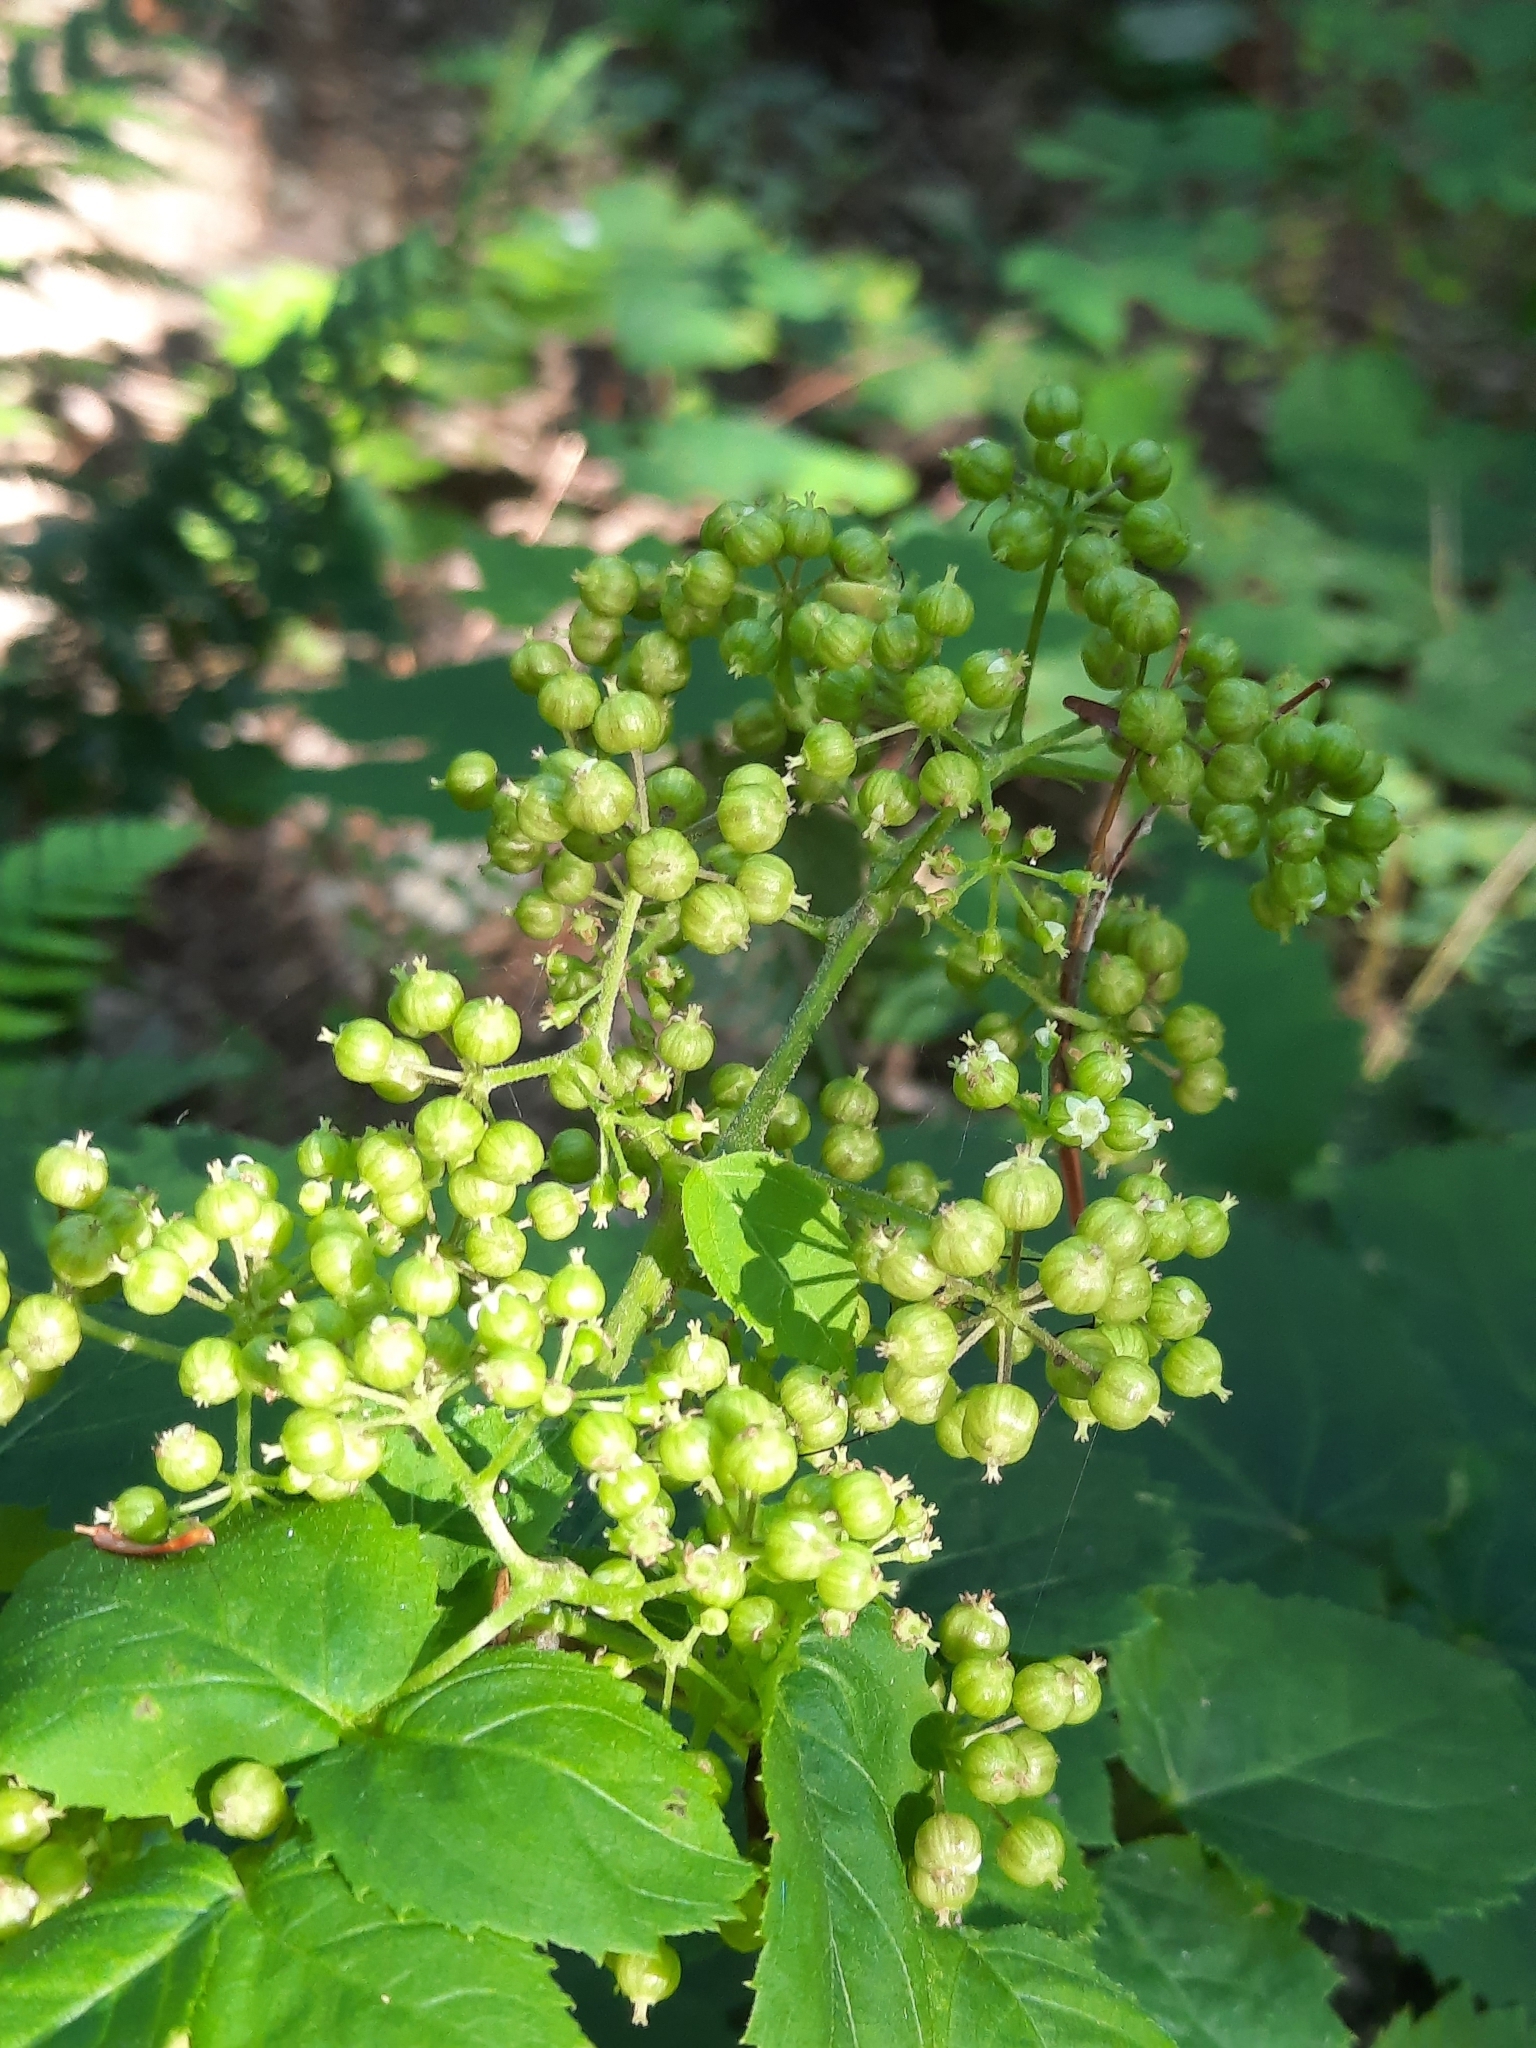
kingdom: Plantae
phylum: Tracheophyta
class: Magnoliopsida
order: Apiales
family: Araliaceae
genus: Aralia
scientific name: Aralia racemosa
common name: American-spikenard
